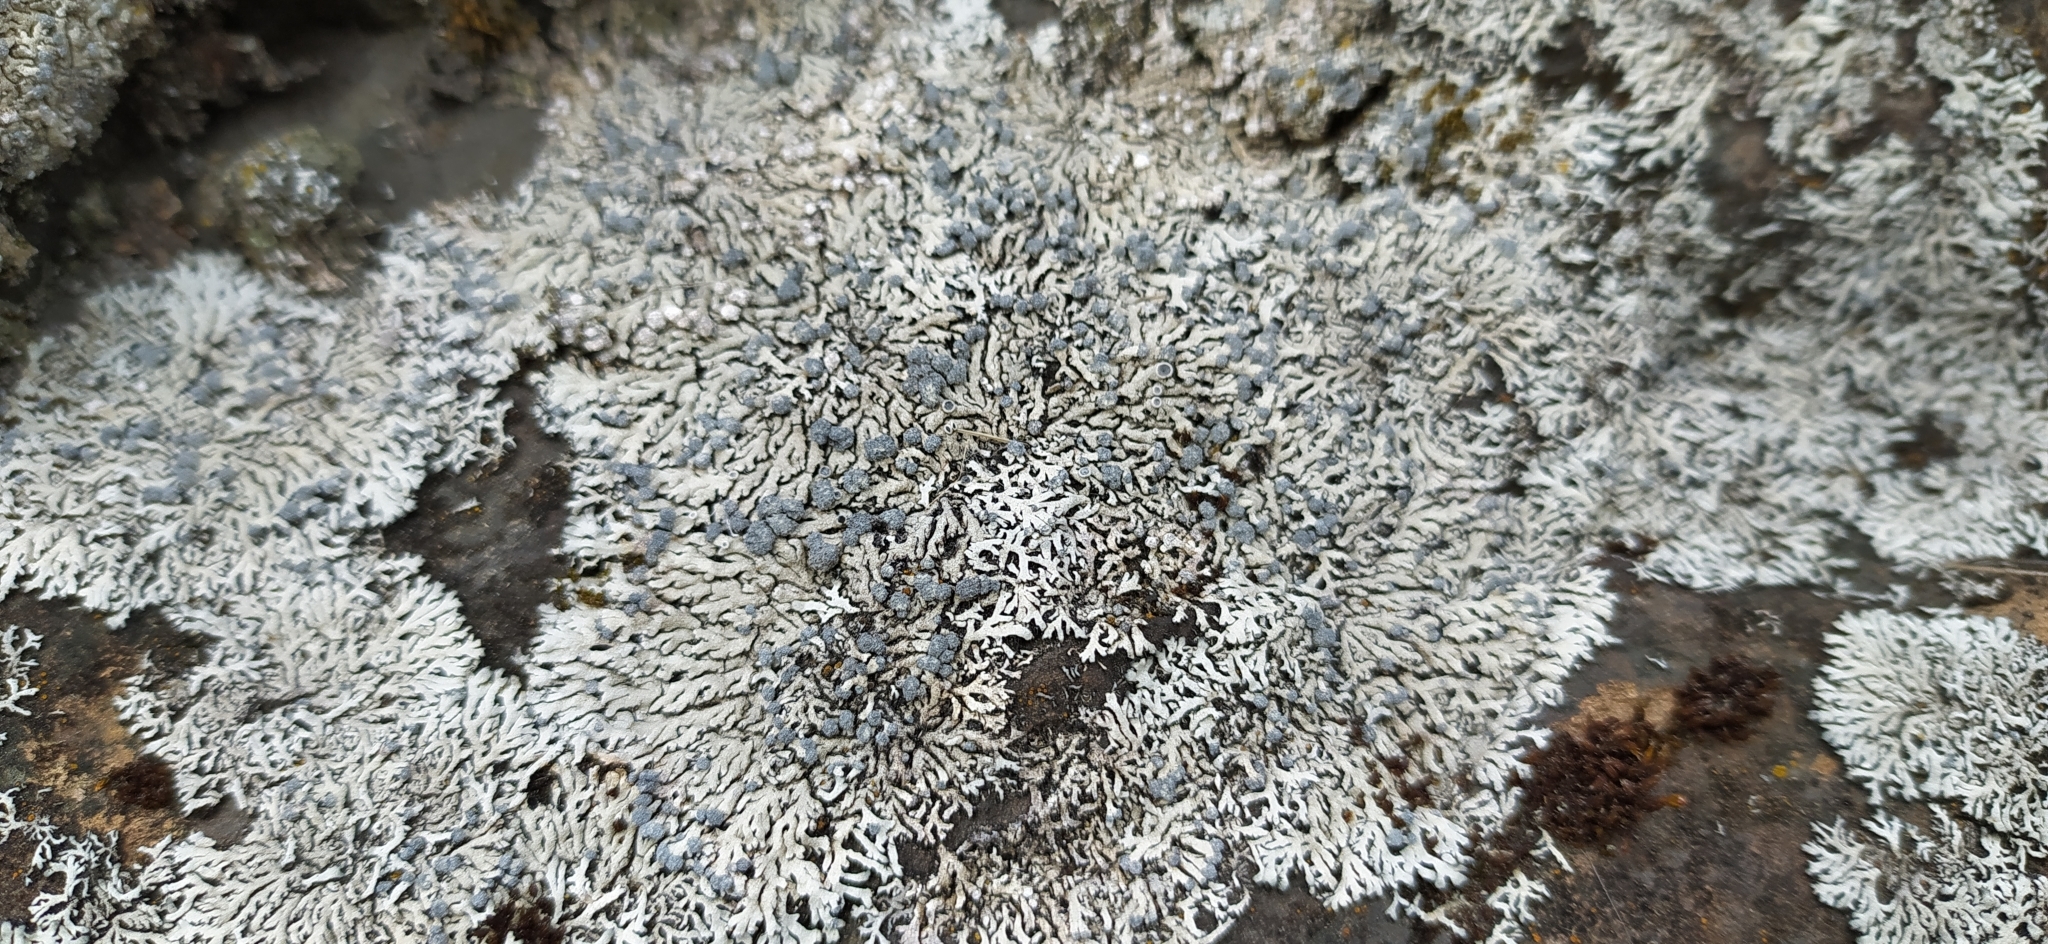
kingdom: Fungi
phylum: Ascomycota
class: Lecanoromycetes
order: Caliciales
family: Physciaceae
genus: Physcia
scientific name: Physcia caesia
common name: Blue-gray rosette lichen
